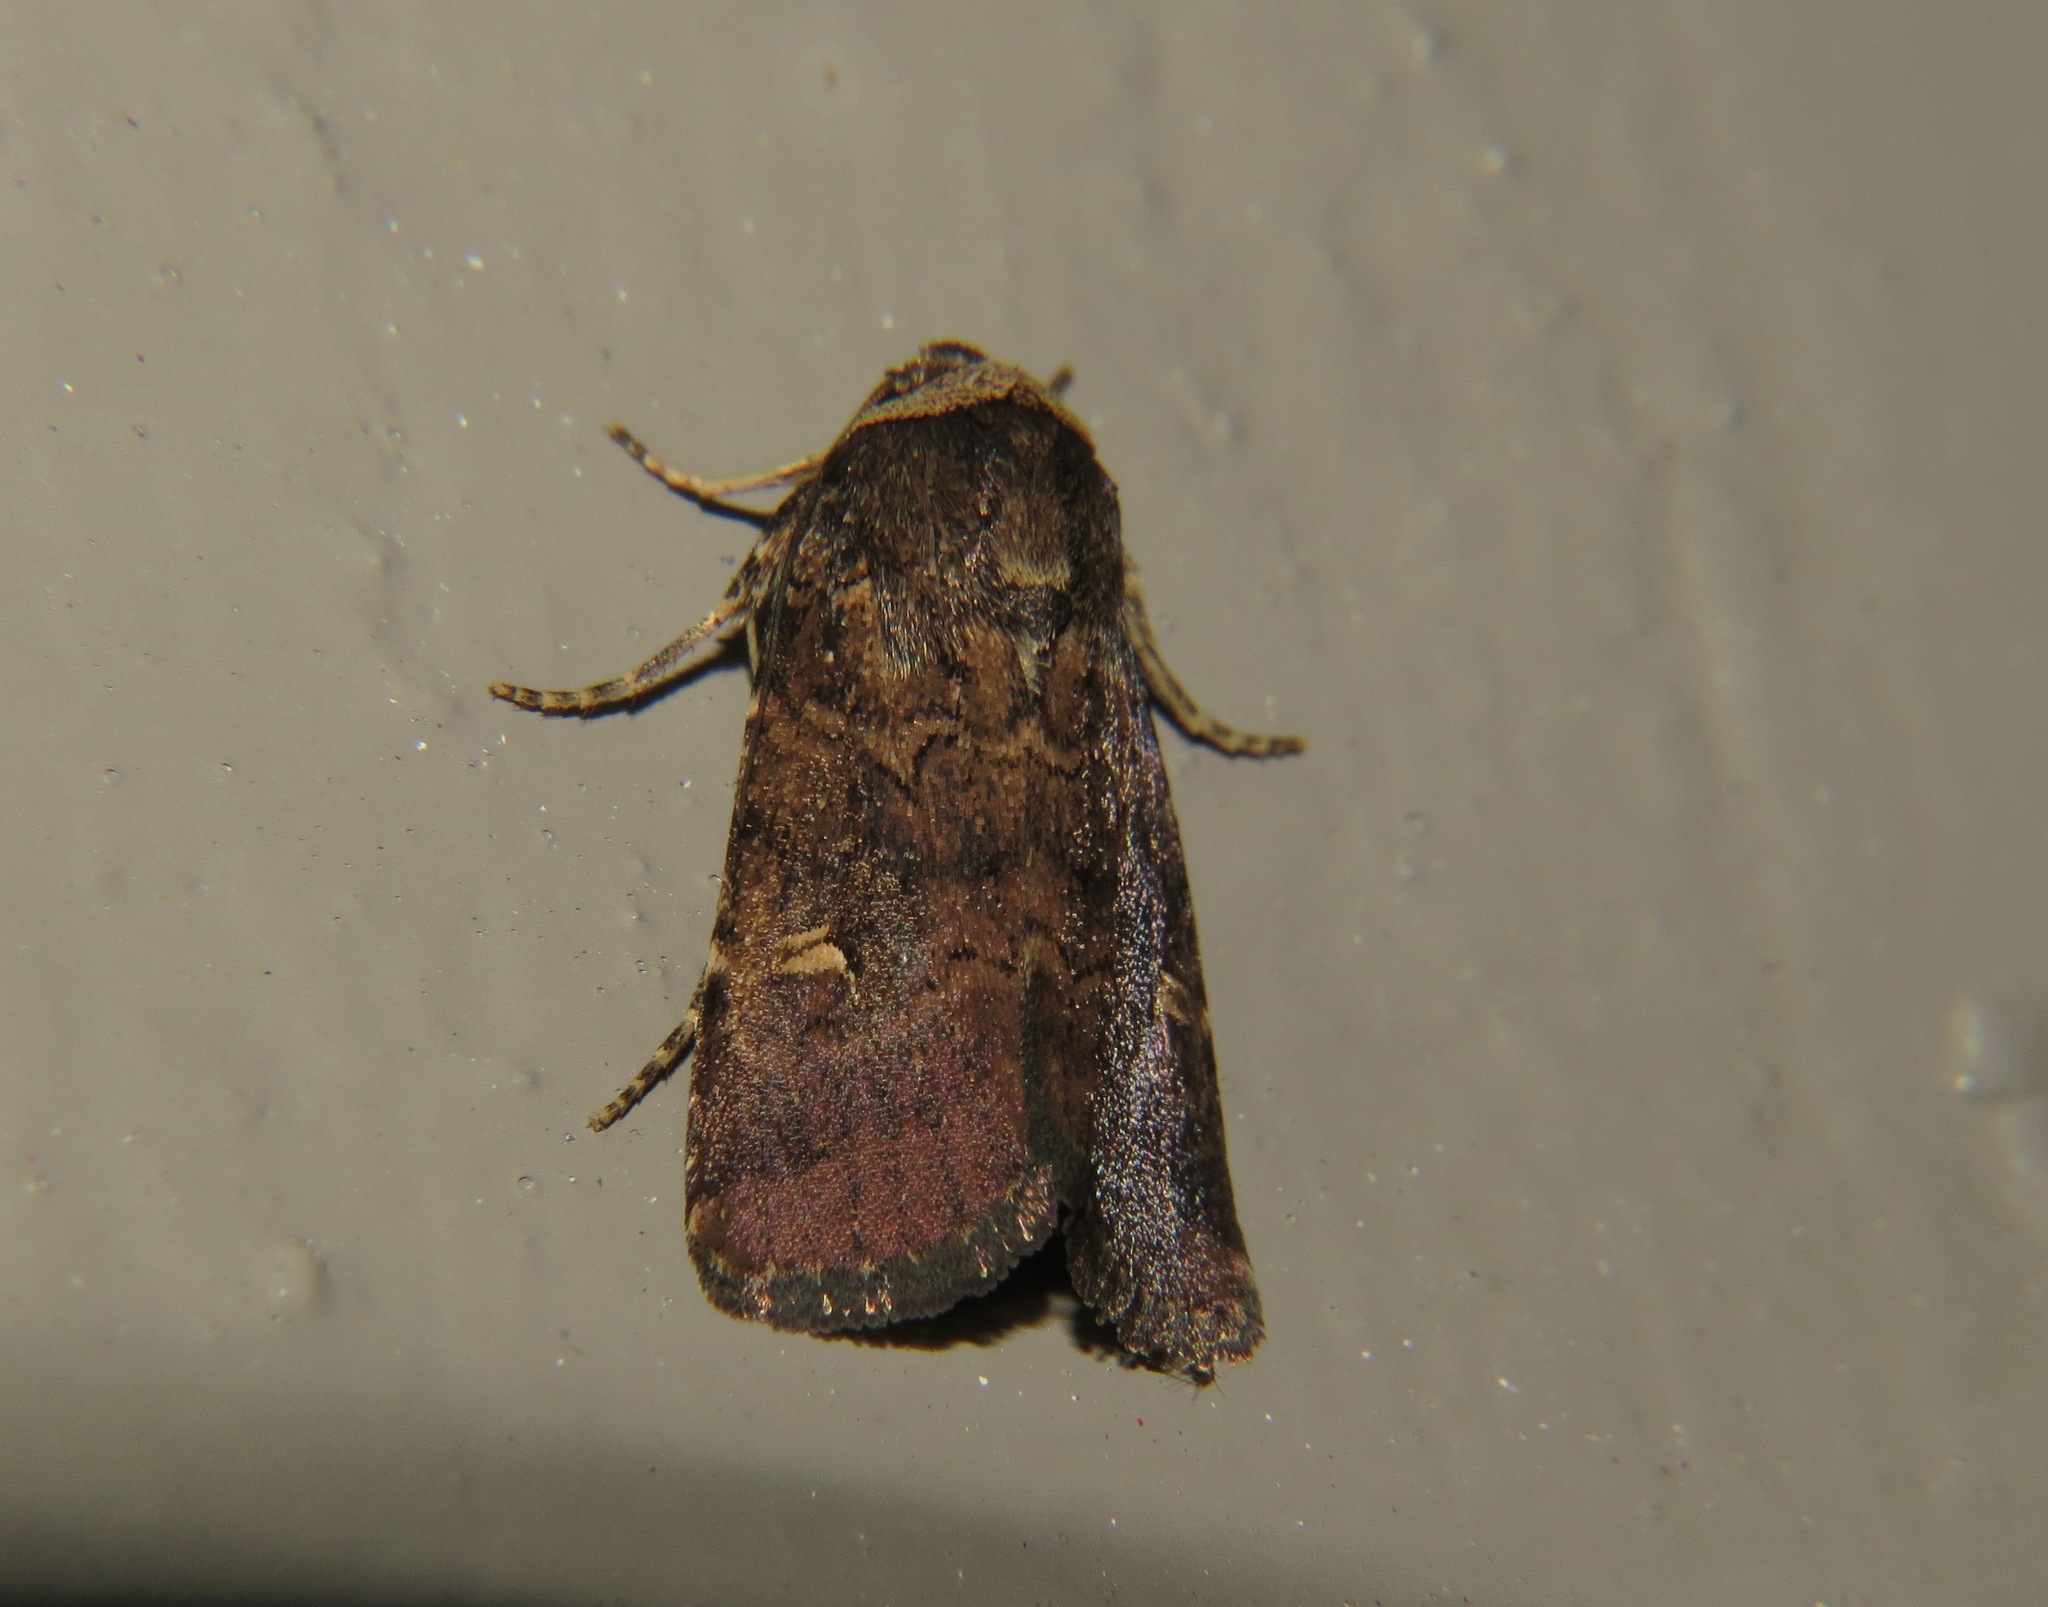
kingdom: Animalia
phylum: Arthropoda
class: Insecta
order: Lepidoptera
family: Noctuidae
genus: Proteuxoa
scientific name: Proteuxoa tetronycha
